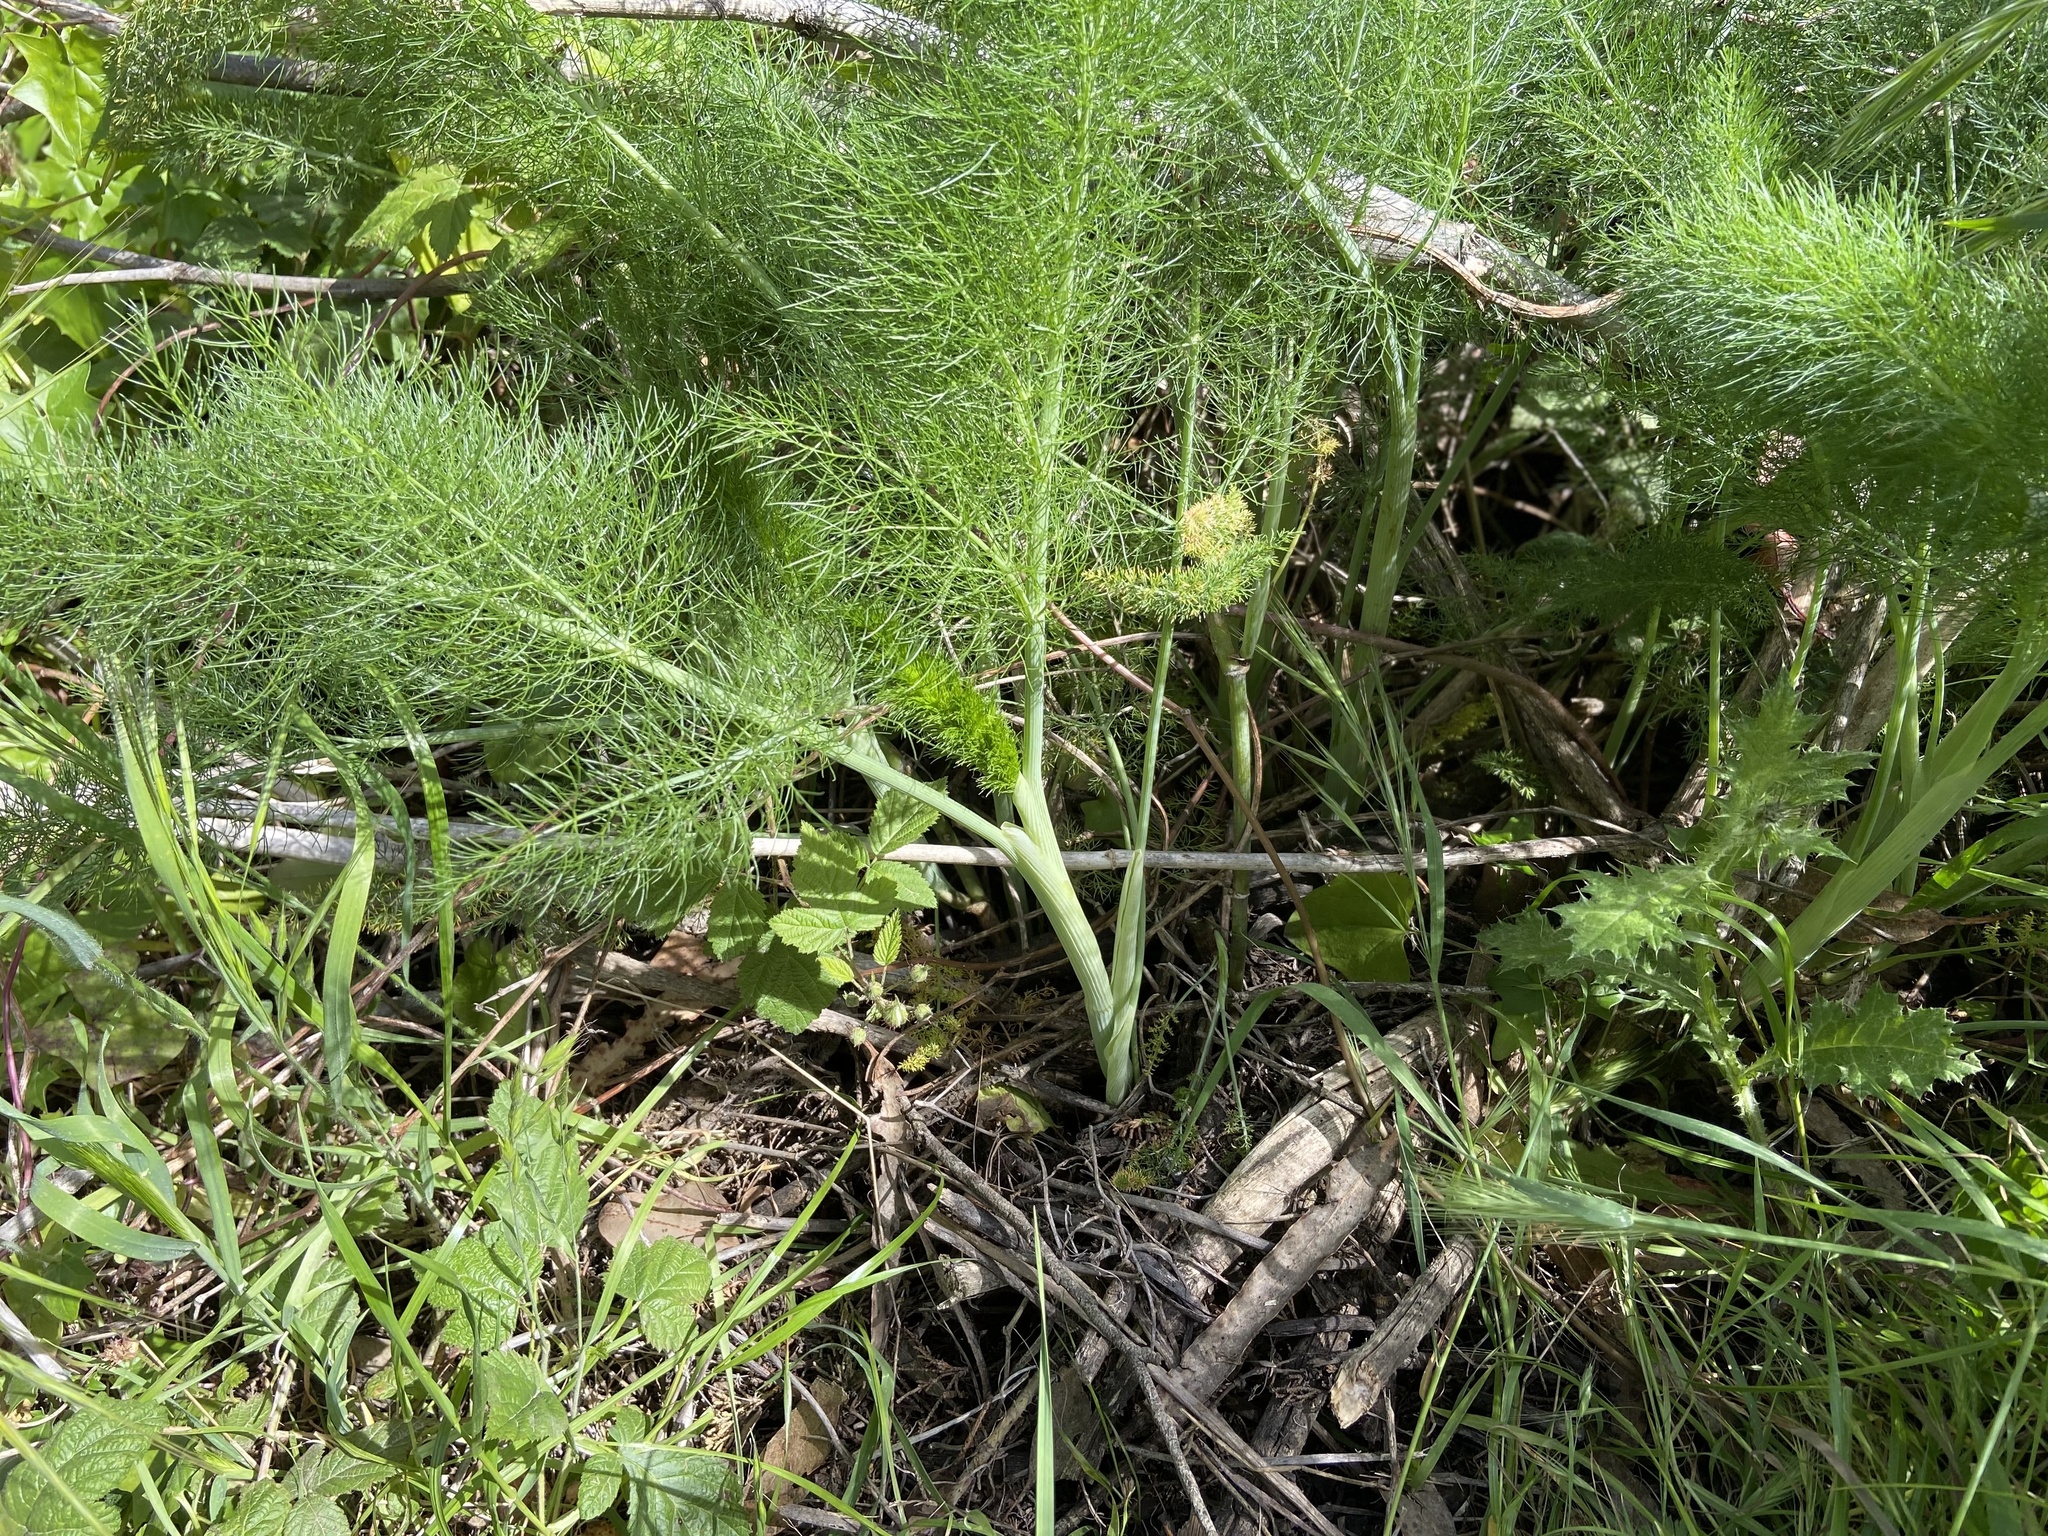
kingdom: Plantae
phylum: Tracheophyta
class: Magnoliopsida
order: Apiales
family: Apiaceae
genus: Foeniculum
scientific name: Foeniculum vulgare
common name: Fennel
